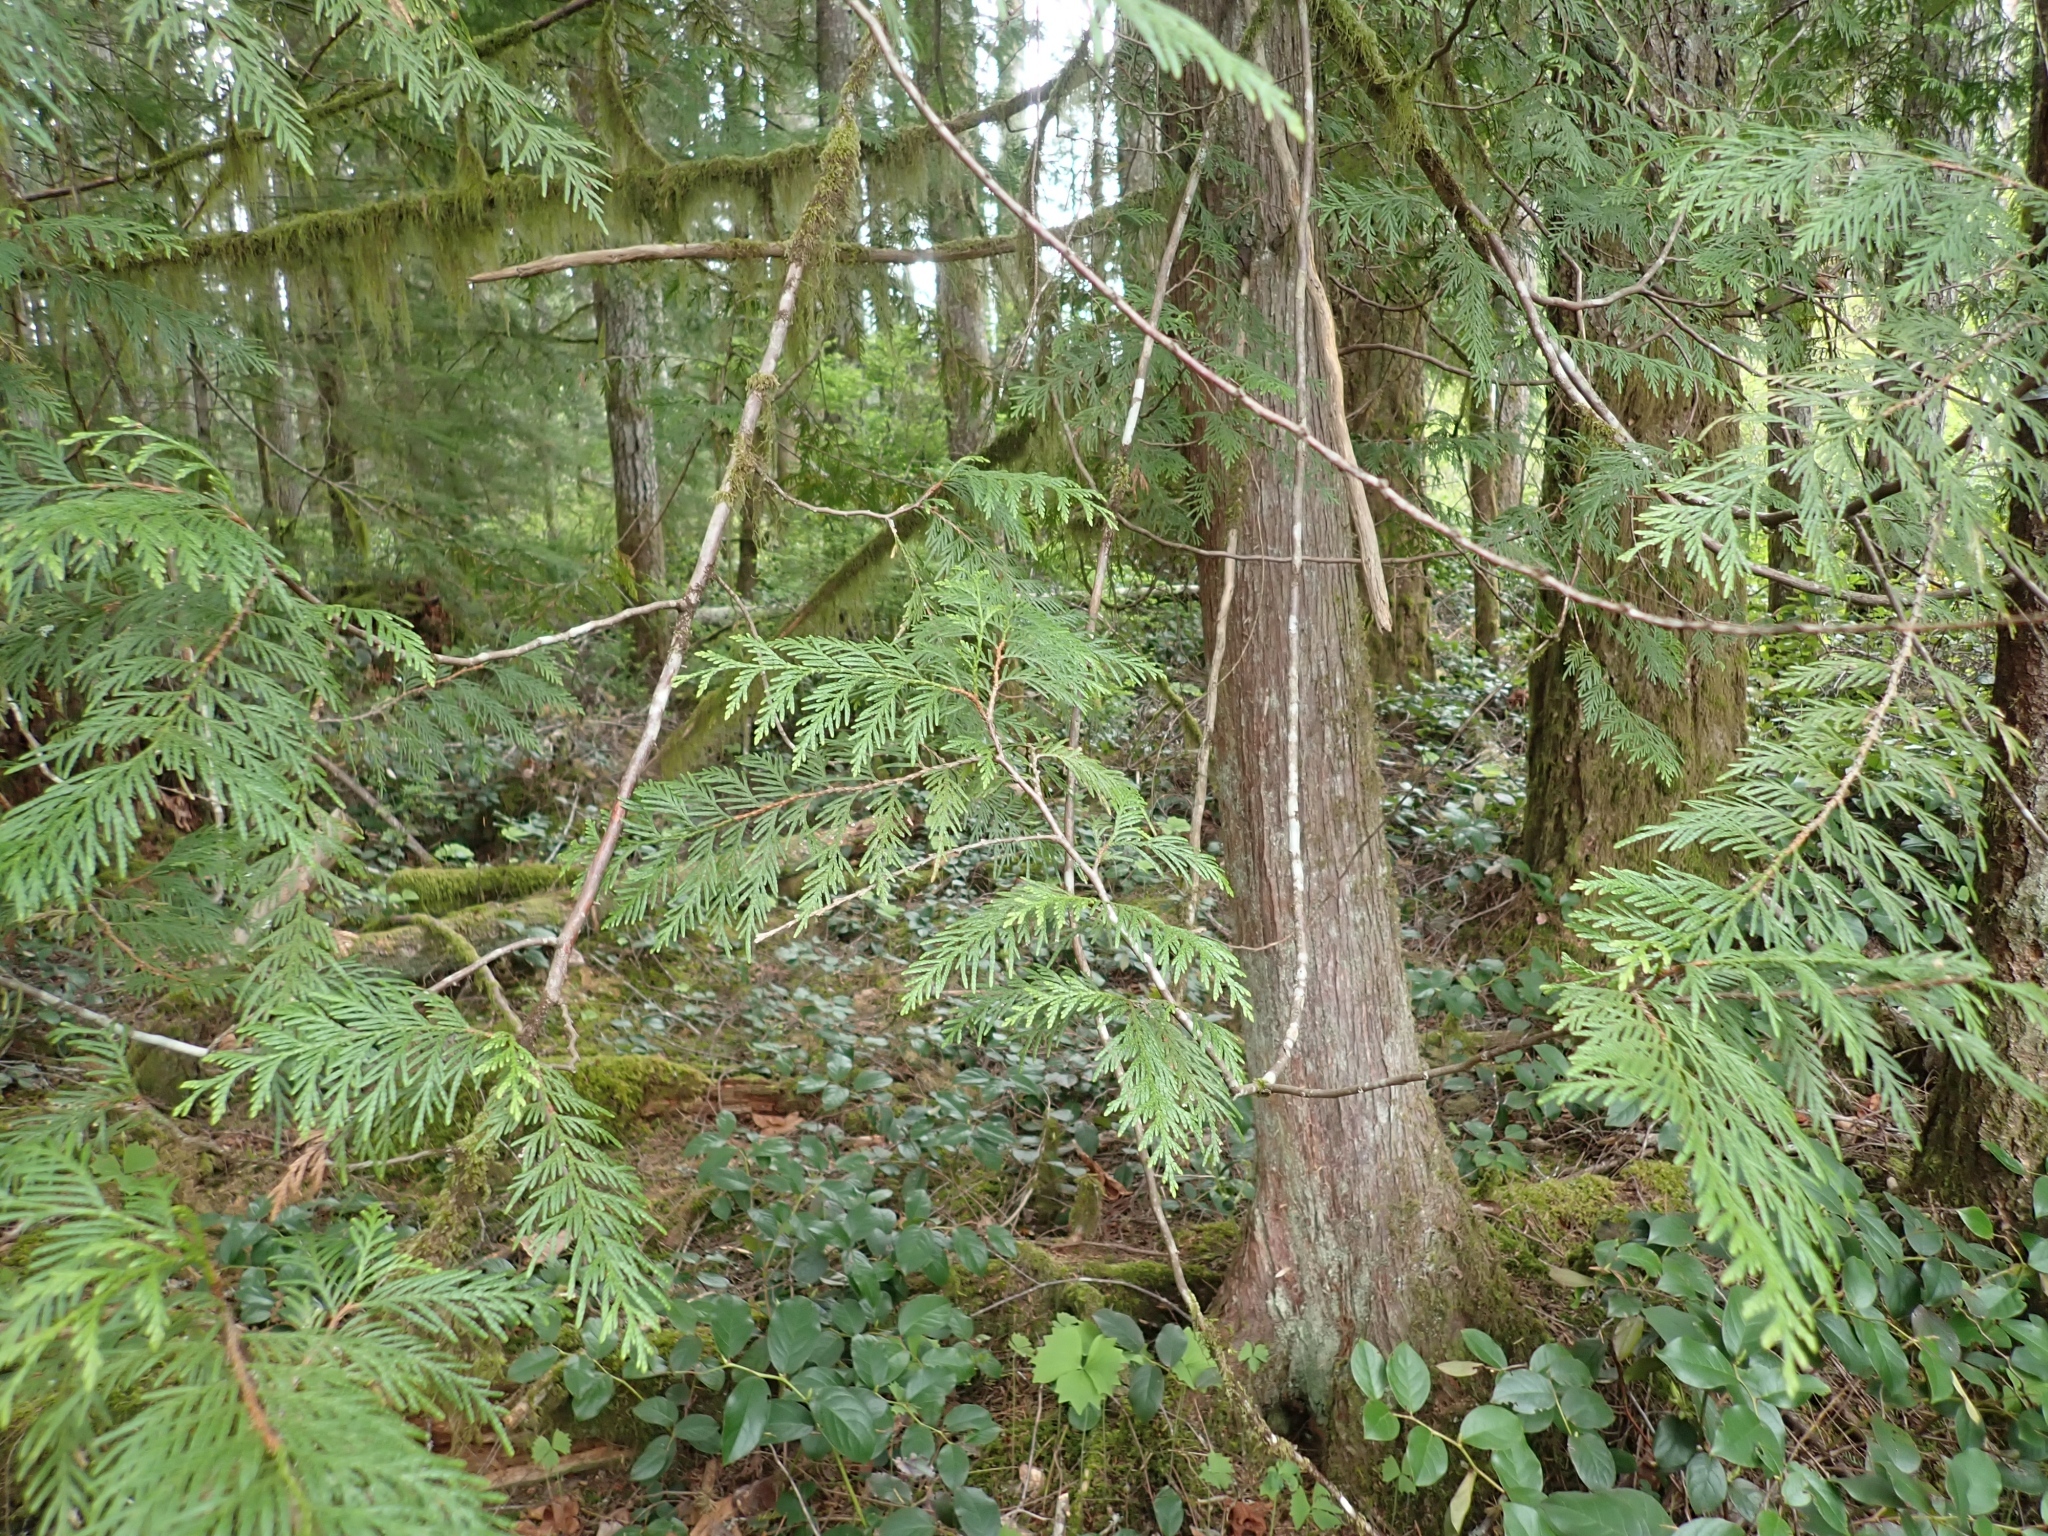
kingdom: Plantae
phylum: Tracheophyta
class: Pinopsida
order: Pinales
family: Cupressaceae
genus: Thuja
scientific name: Thuja plicata
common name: Western red-cedar
